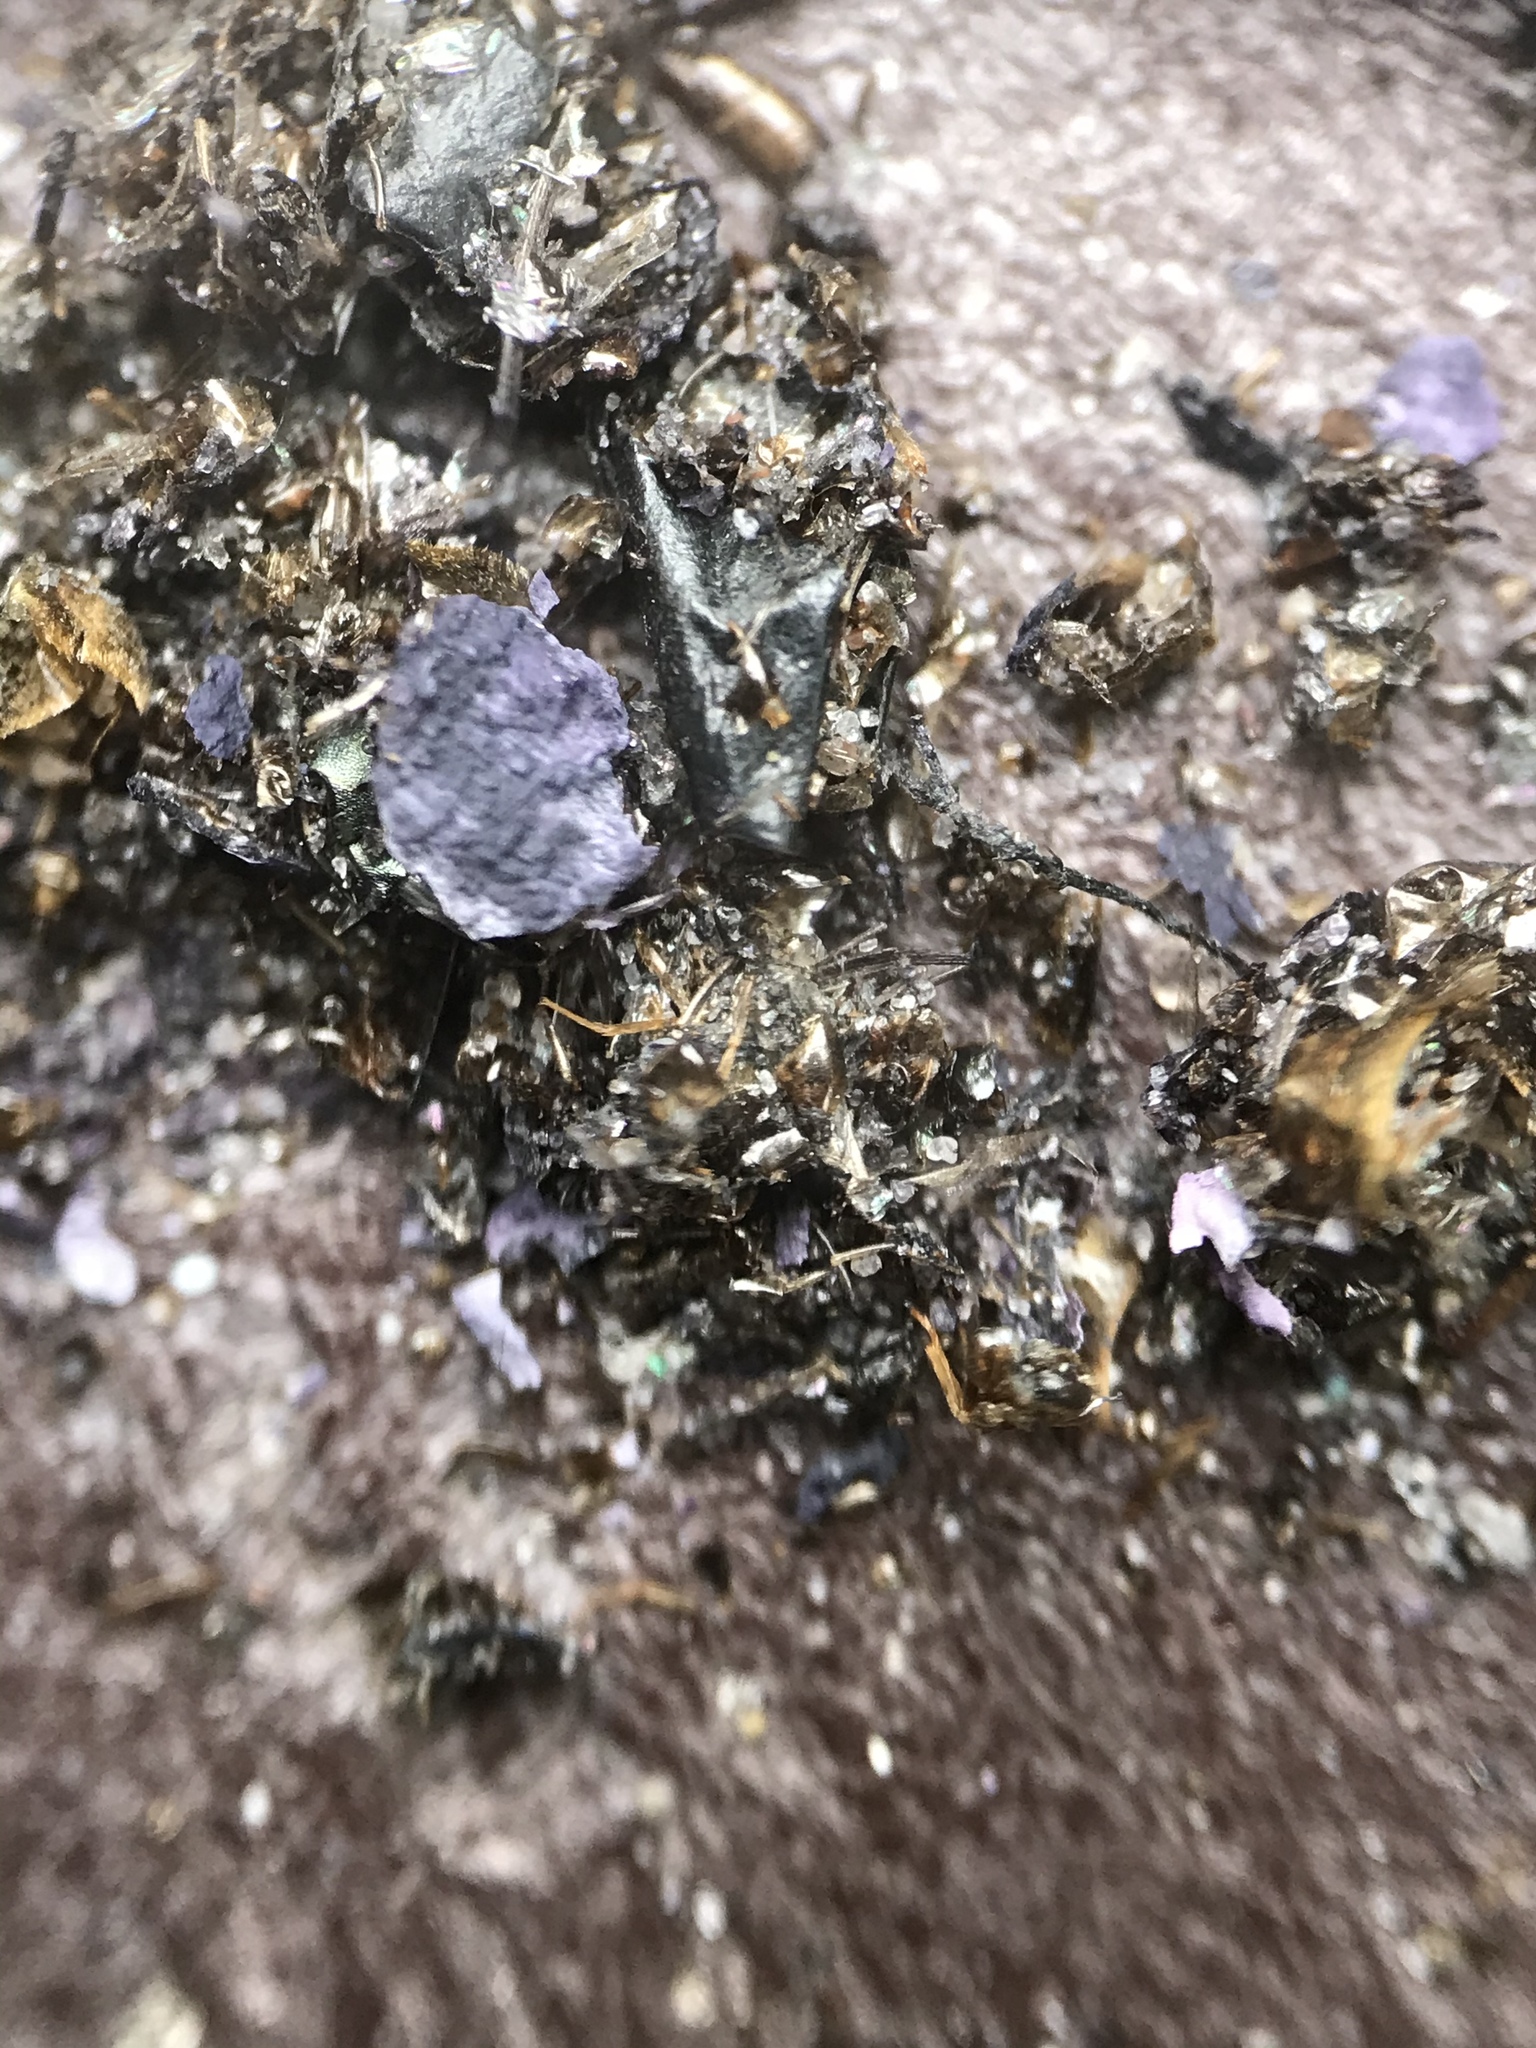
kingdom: Animalia
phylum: Chordata
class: Aves
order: Piciformes
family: Picidae
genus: Colaptes
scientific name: Colaptes auratus
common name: Northern flicker
